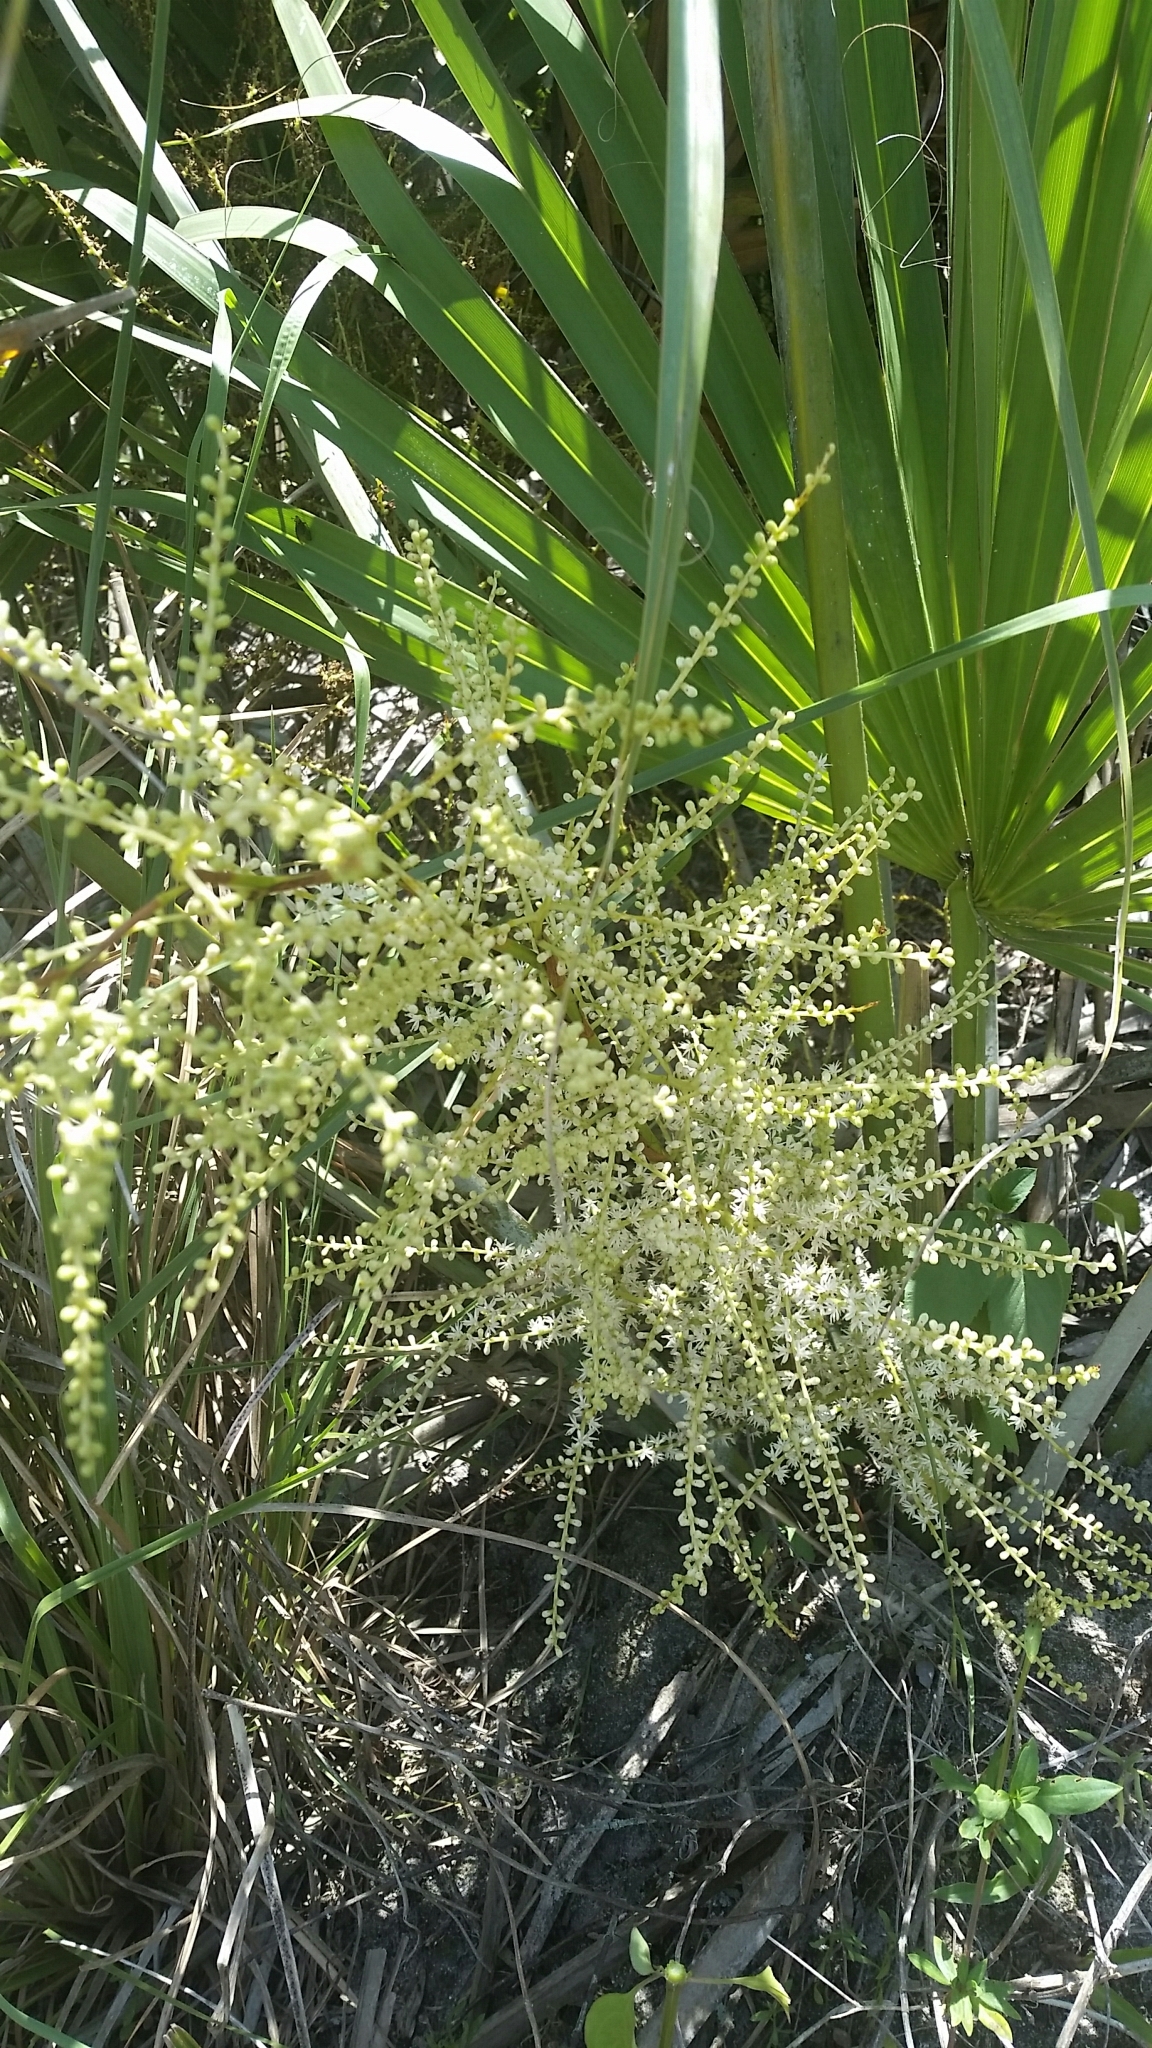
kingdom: Plantae
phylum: Tracheophyta
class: Liliopsida
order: Arecales
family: Arecaceae
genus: Sabal
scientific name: Sabal etonia
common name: Dwarf palmetto
